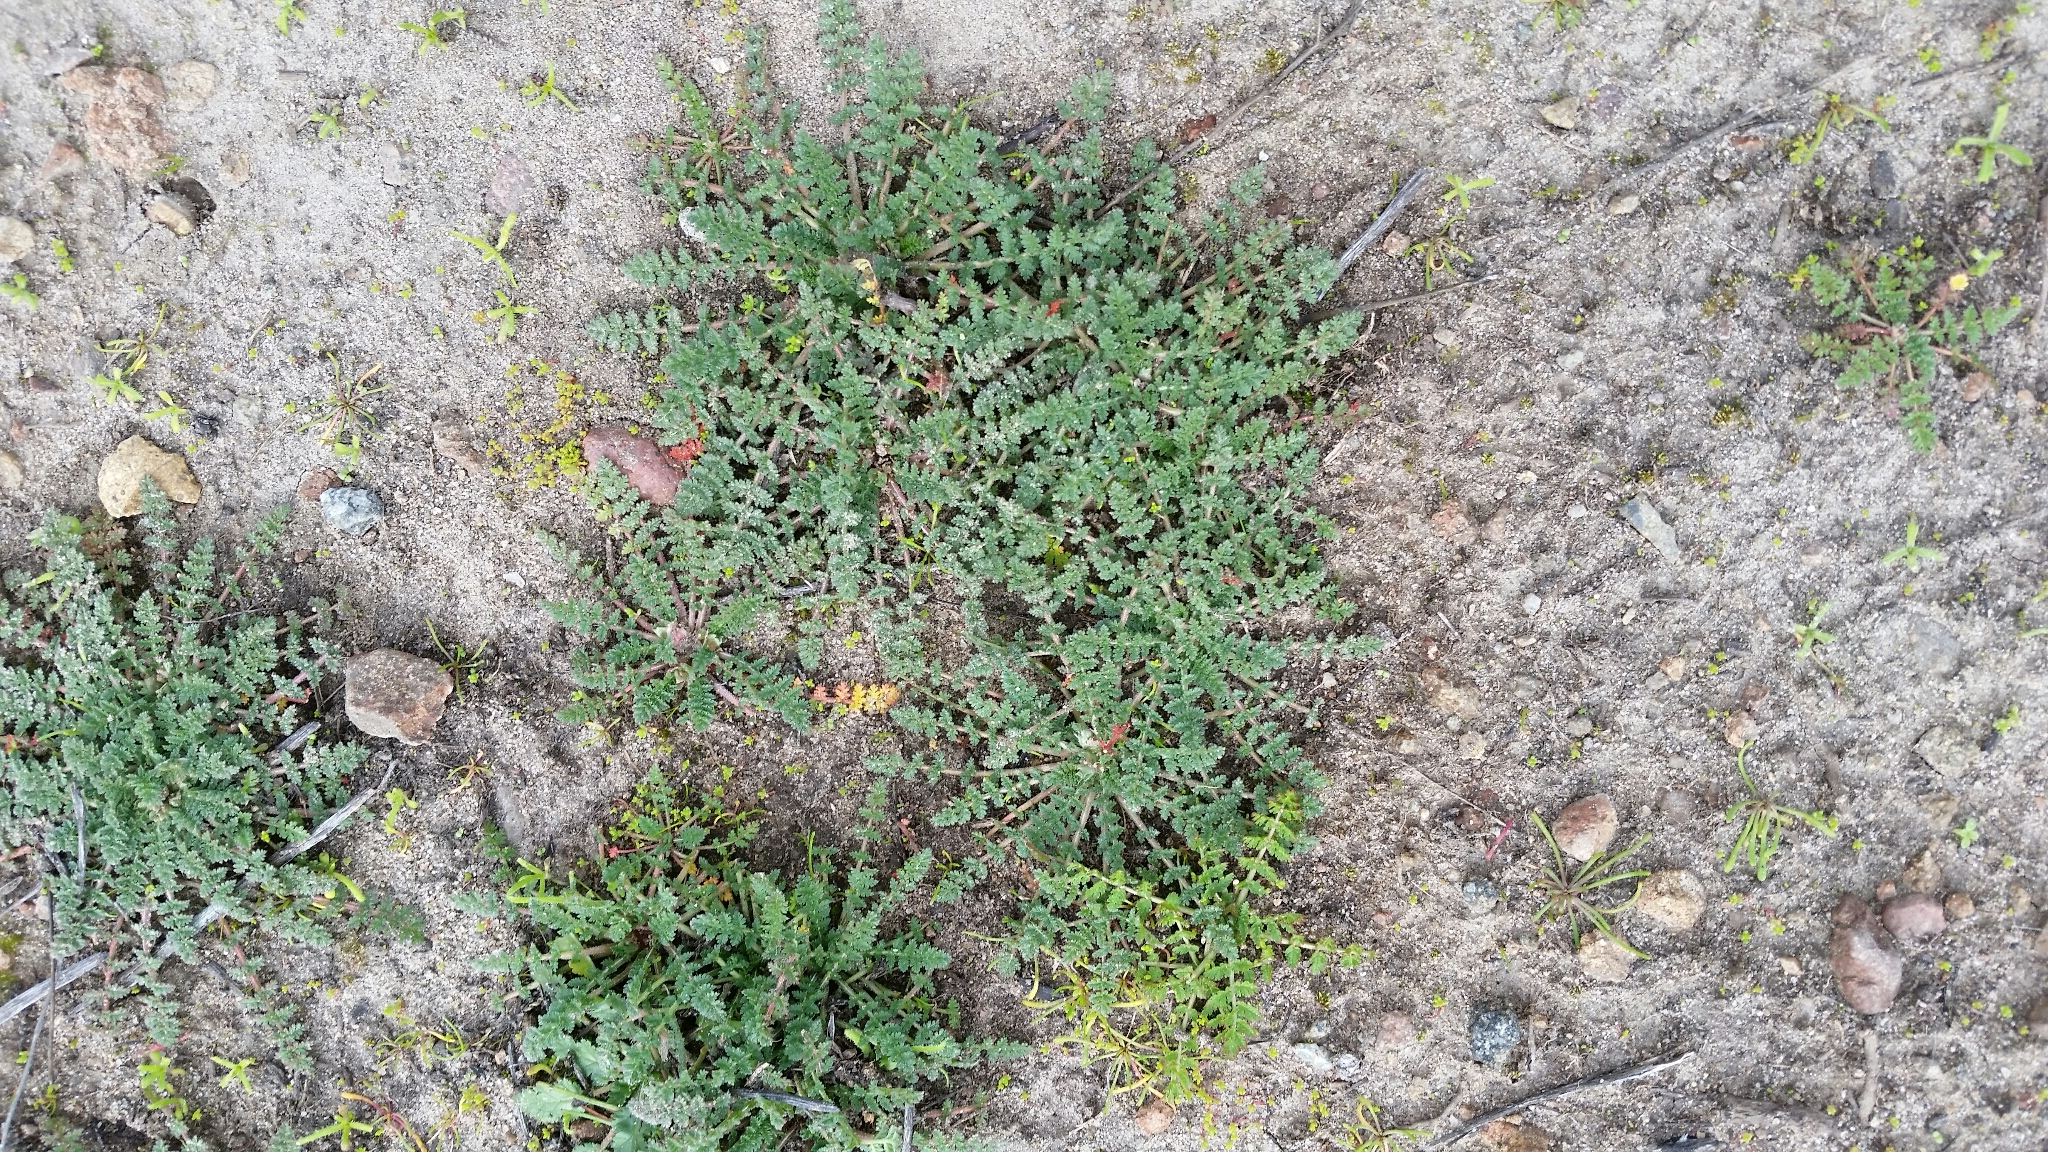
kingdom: Plantae
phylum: Tracheophyta
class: Magnoliopsida
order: Geraniales
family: Geraniaceae
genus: Erodium
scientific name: Erodium cicutarium
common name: Common stork's-bill
